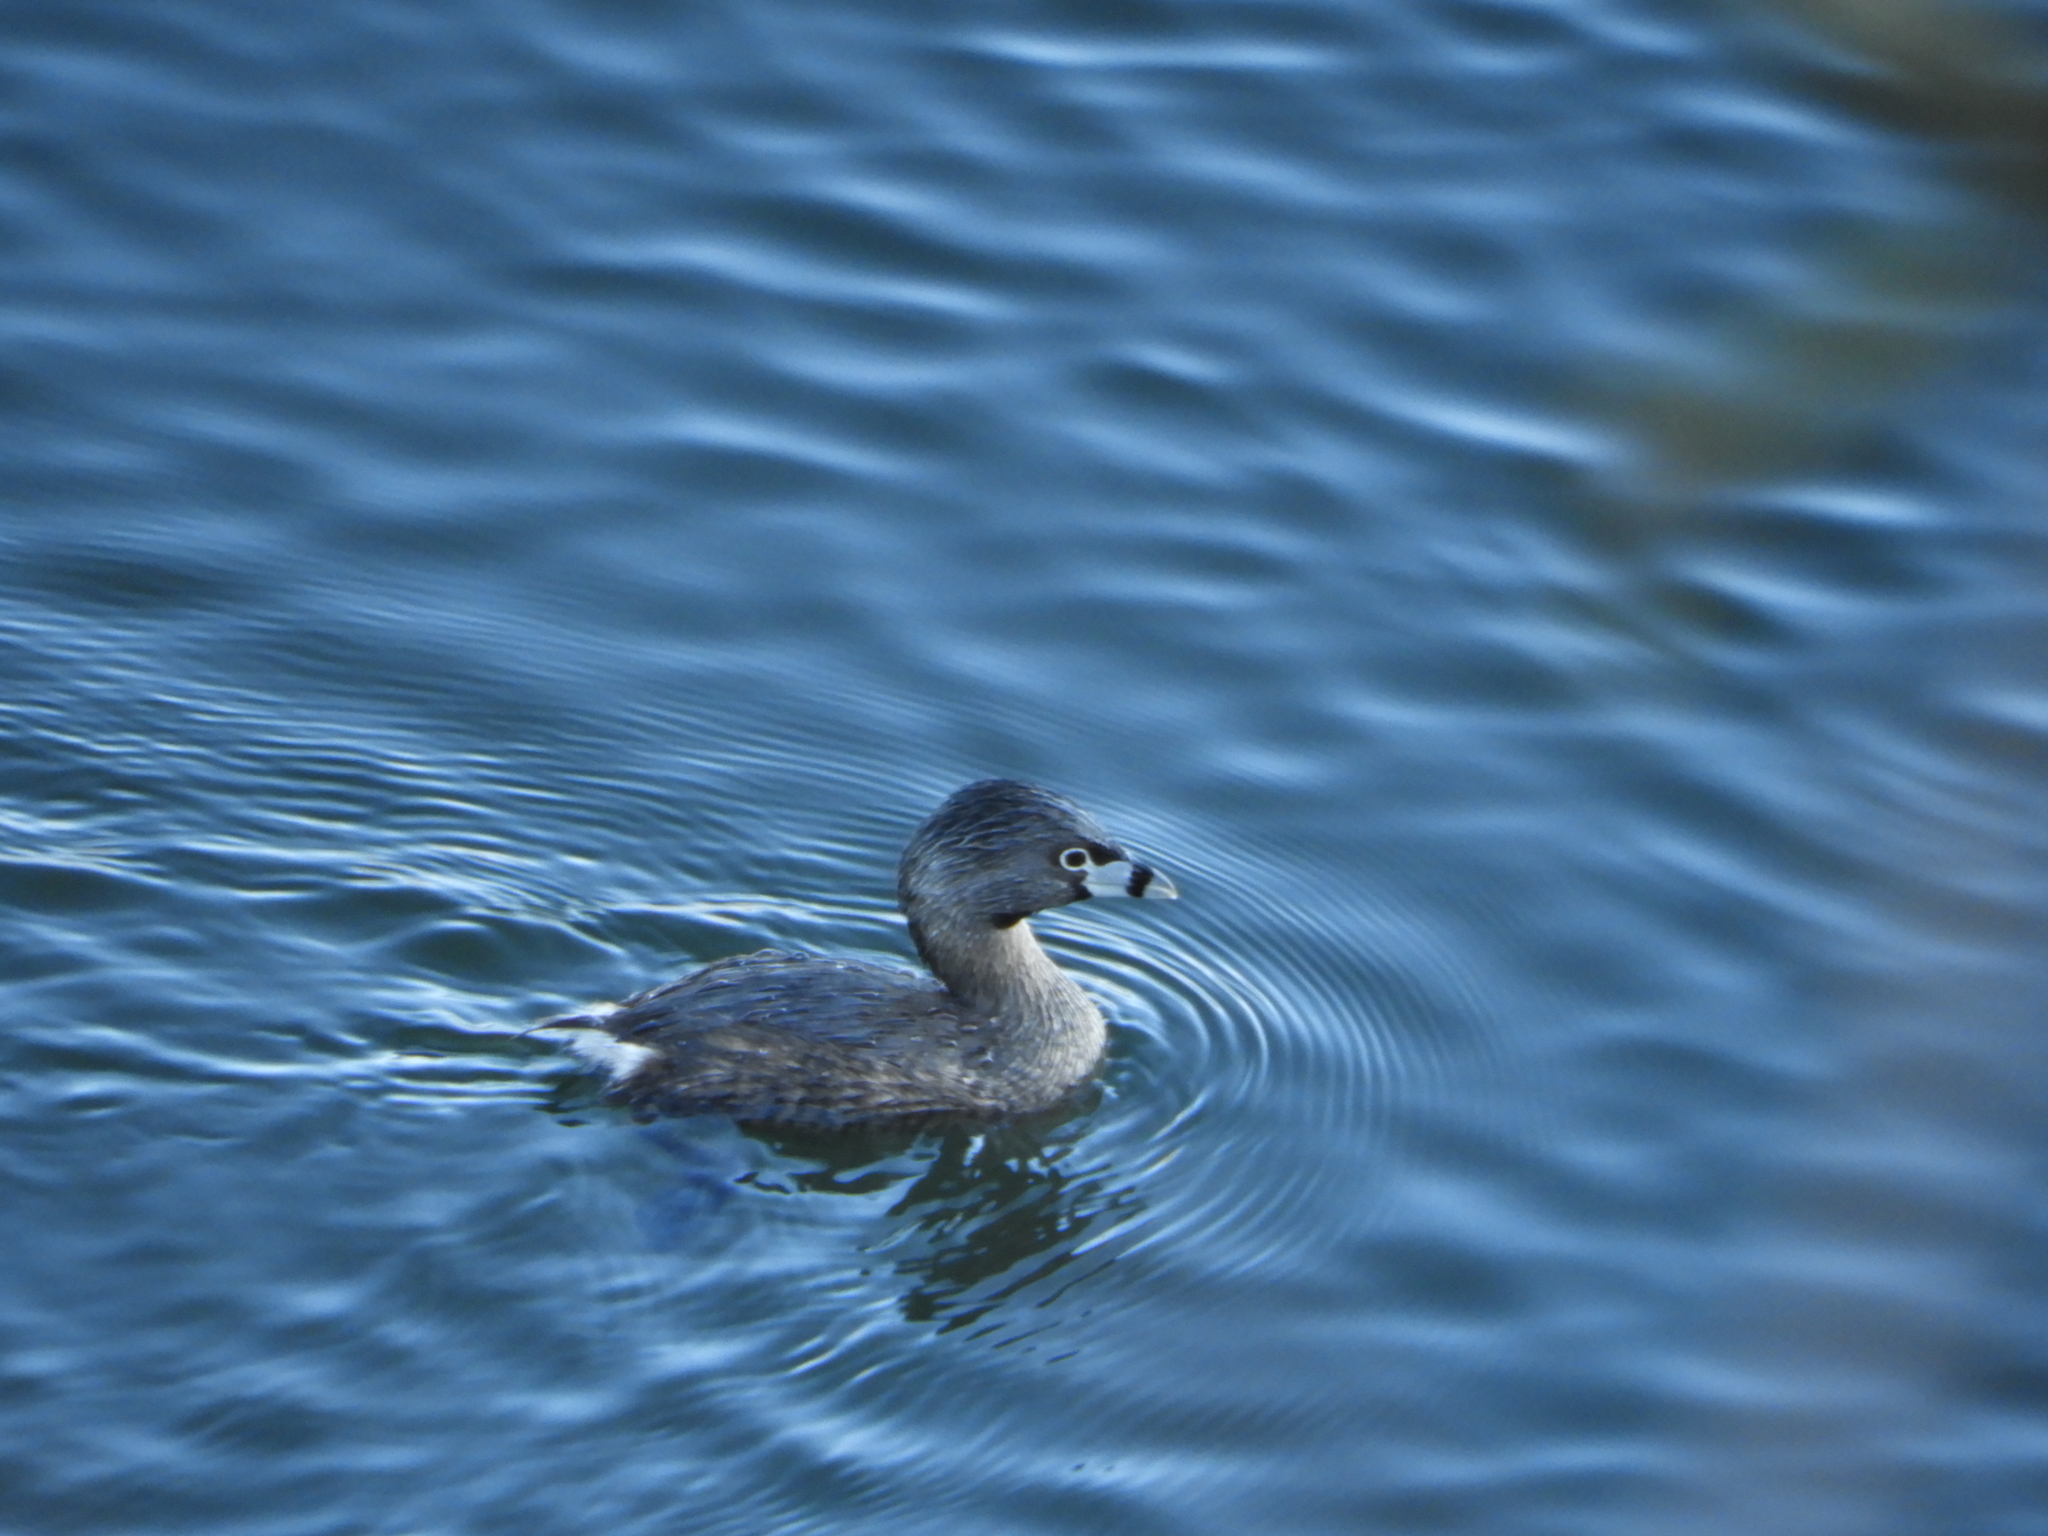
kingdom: Animalia
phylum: Chordata
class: Aves
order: Podicipediformes
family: Podicipedidae
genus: Podilymbus
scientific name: Podilymbus podiceps
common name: Pied-billed grebe
